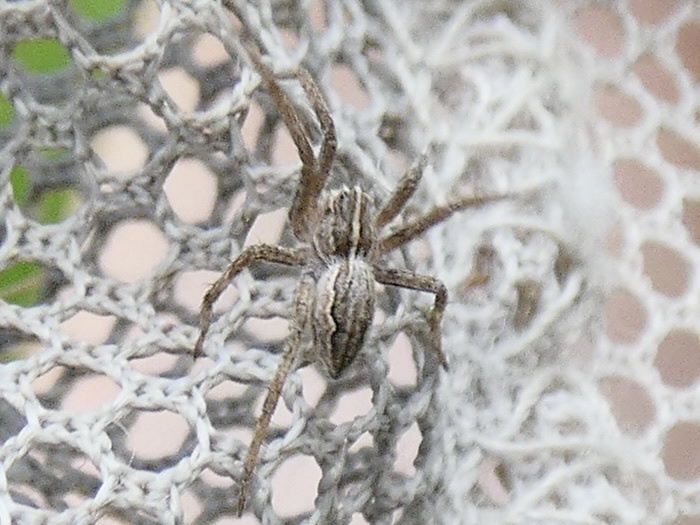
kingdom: Animalia
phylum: Arthropoda
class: Arachnida
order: Araneae
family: Pisauridae
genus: Pisaura
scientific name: Pisaura mirabilis
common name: Tent spider
